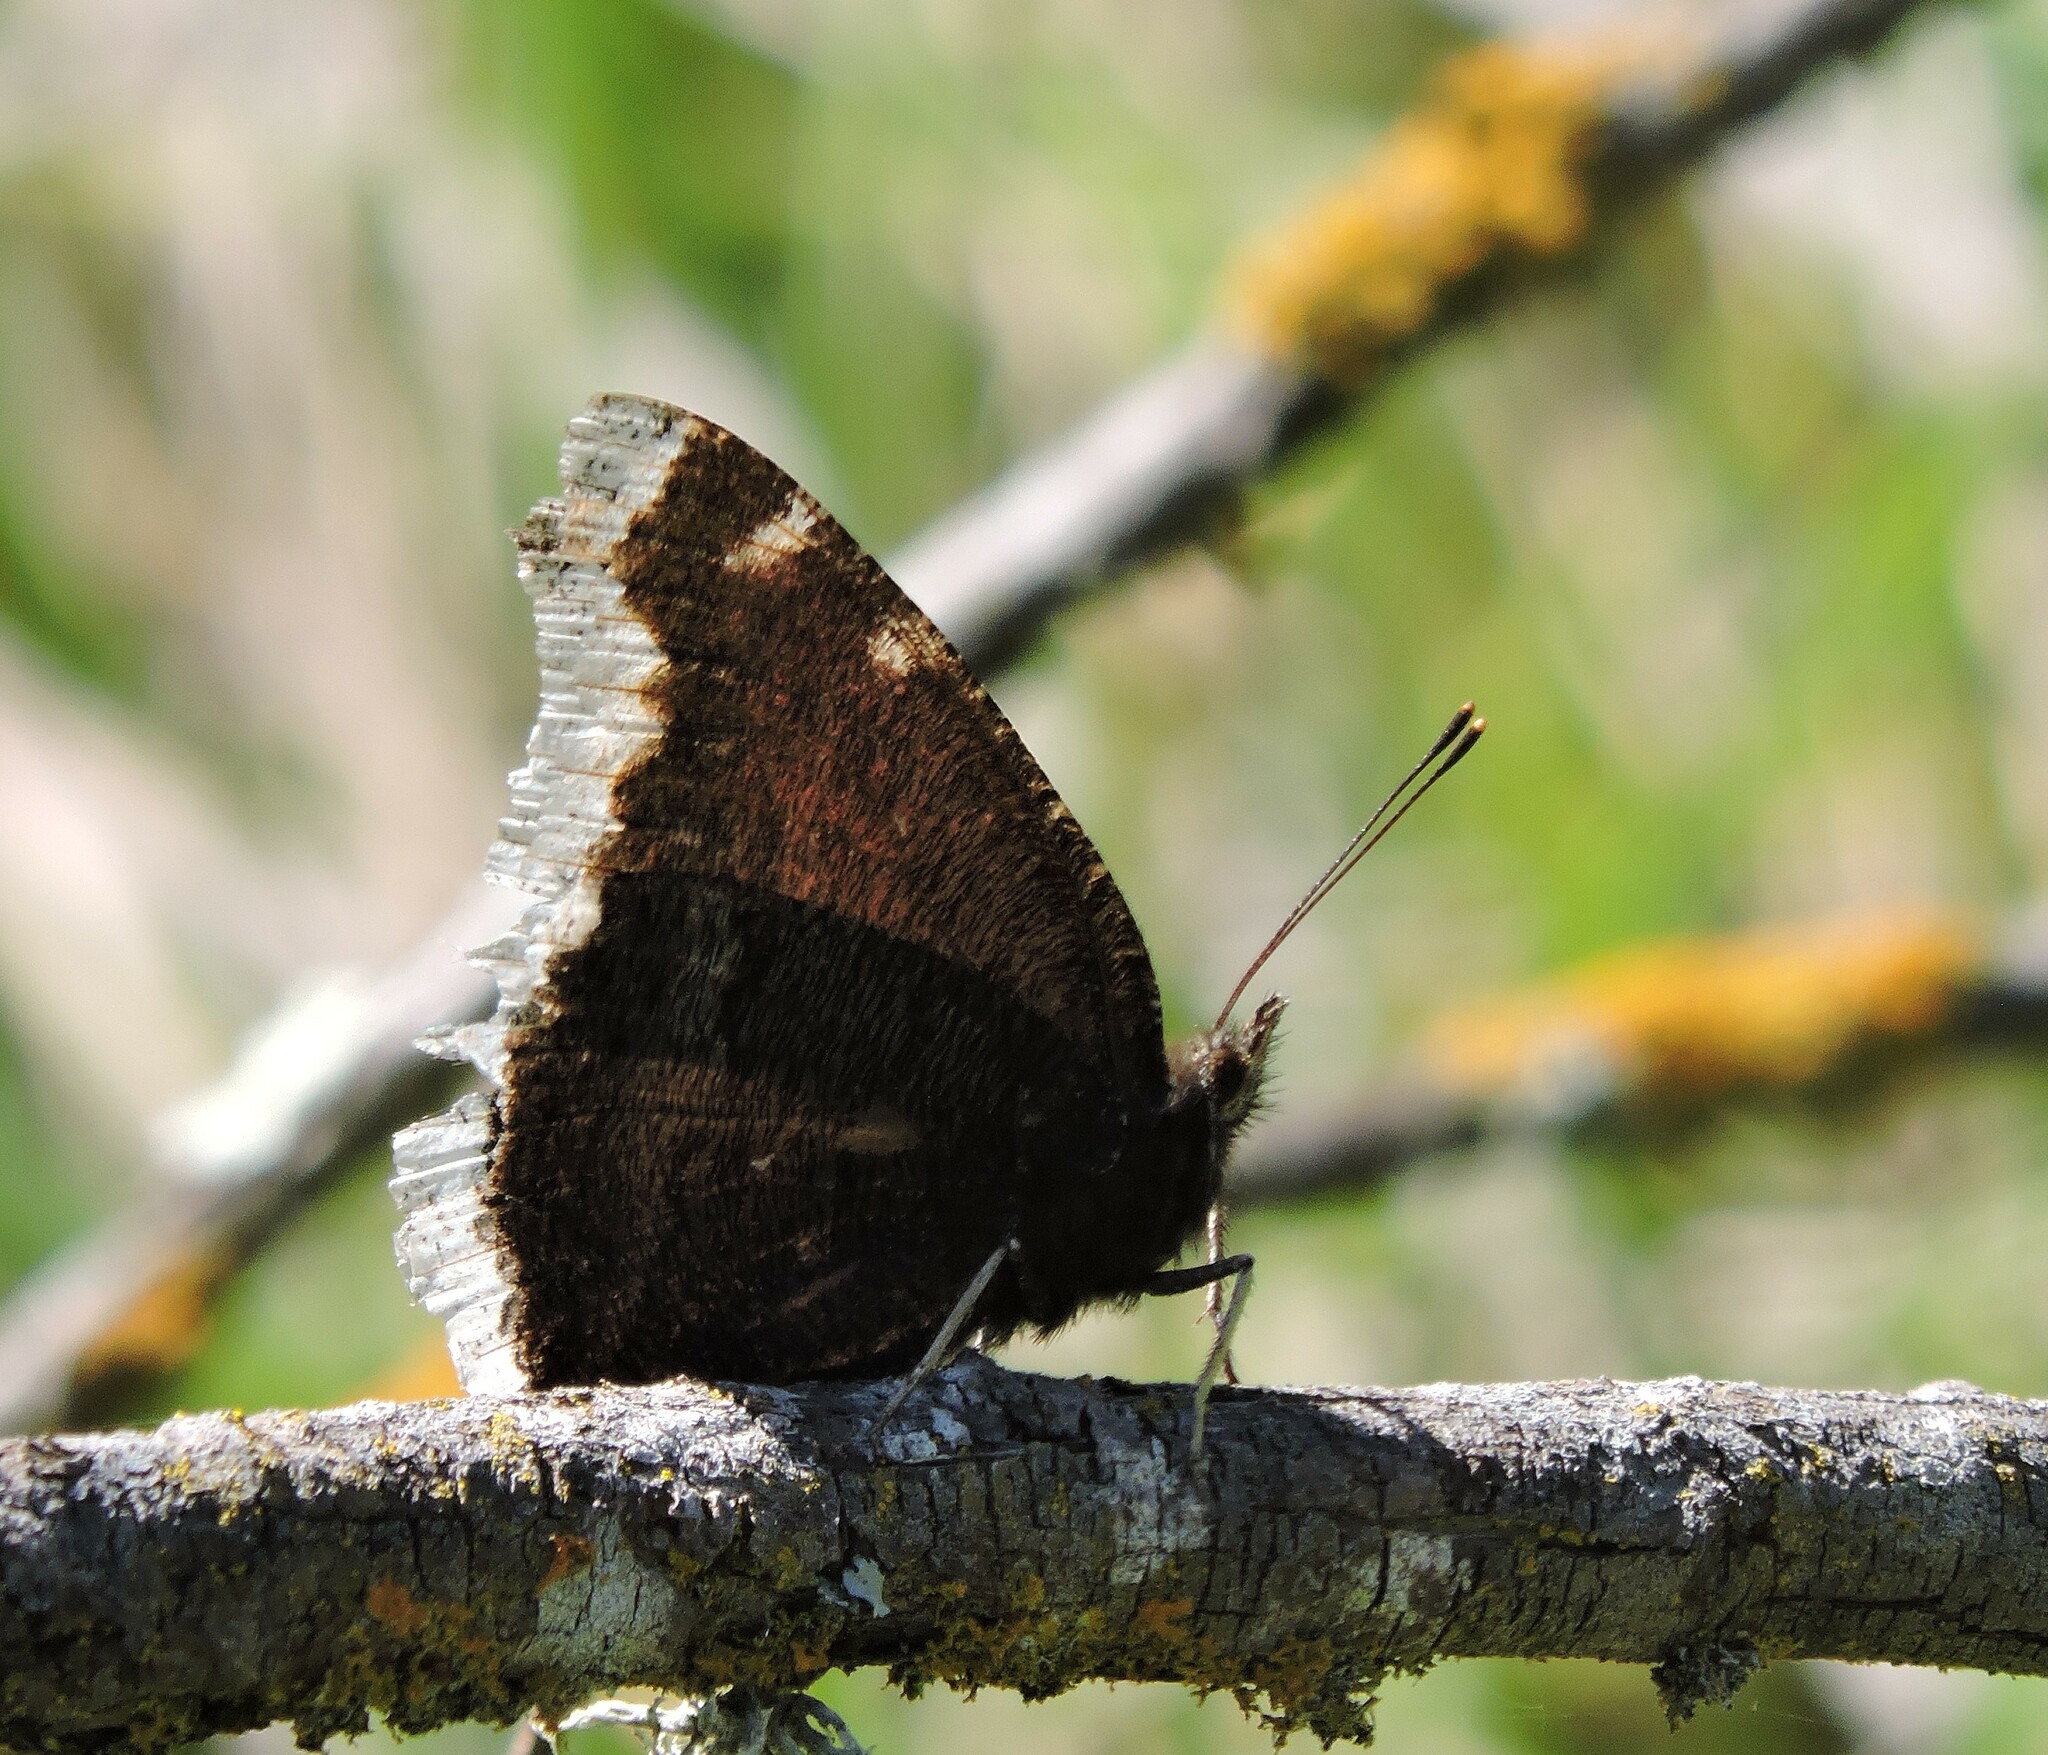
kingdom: Animalia
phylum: Arthropoda
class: Insecta
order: Lepidoptera
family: Nymphalidae
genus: Nymphalis
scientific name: Nymphalis antiopa
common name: Camberwell beauty
